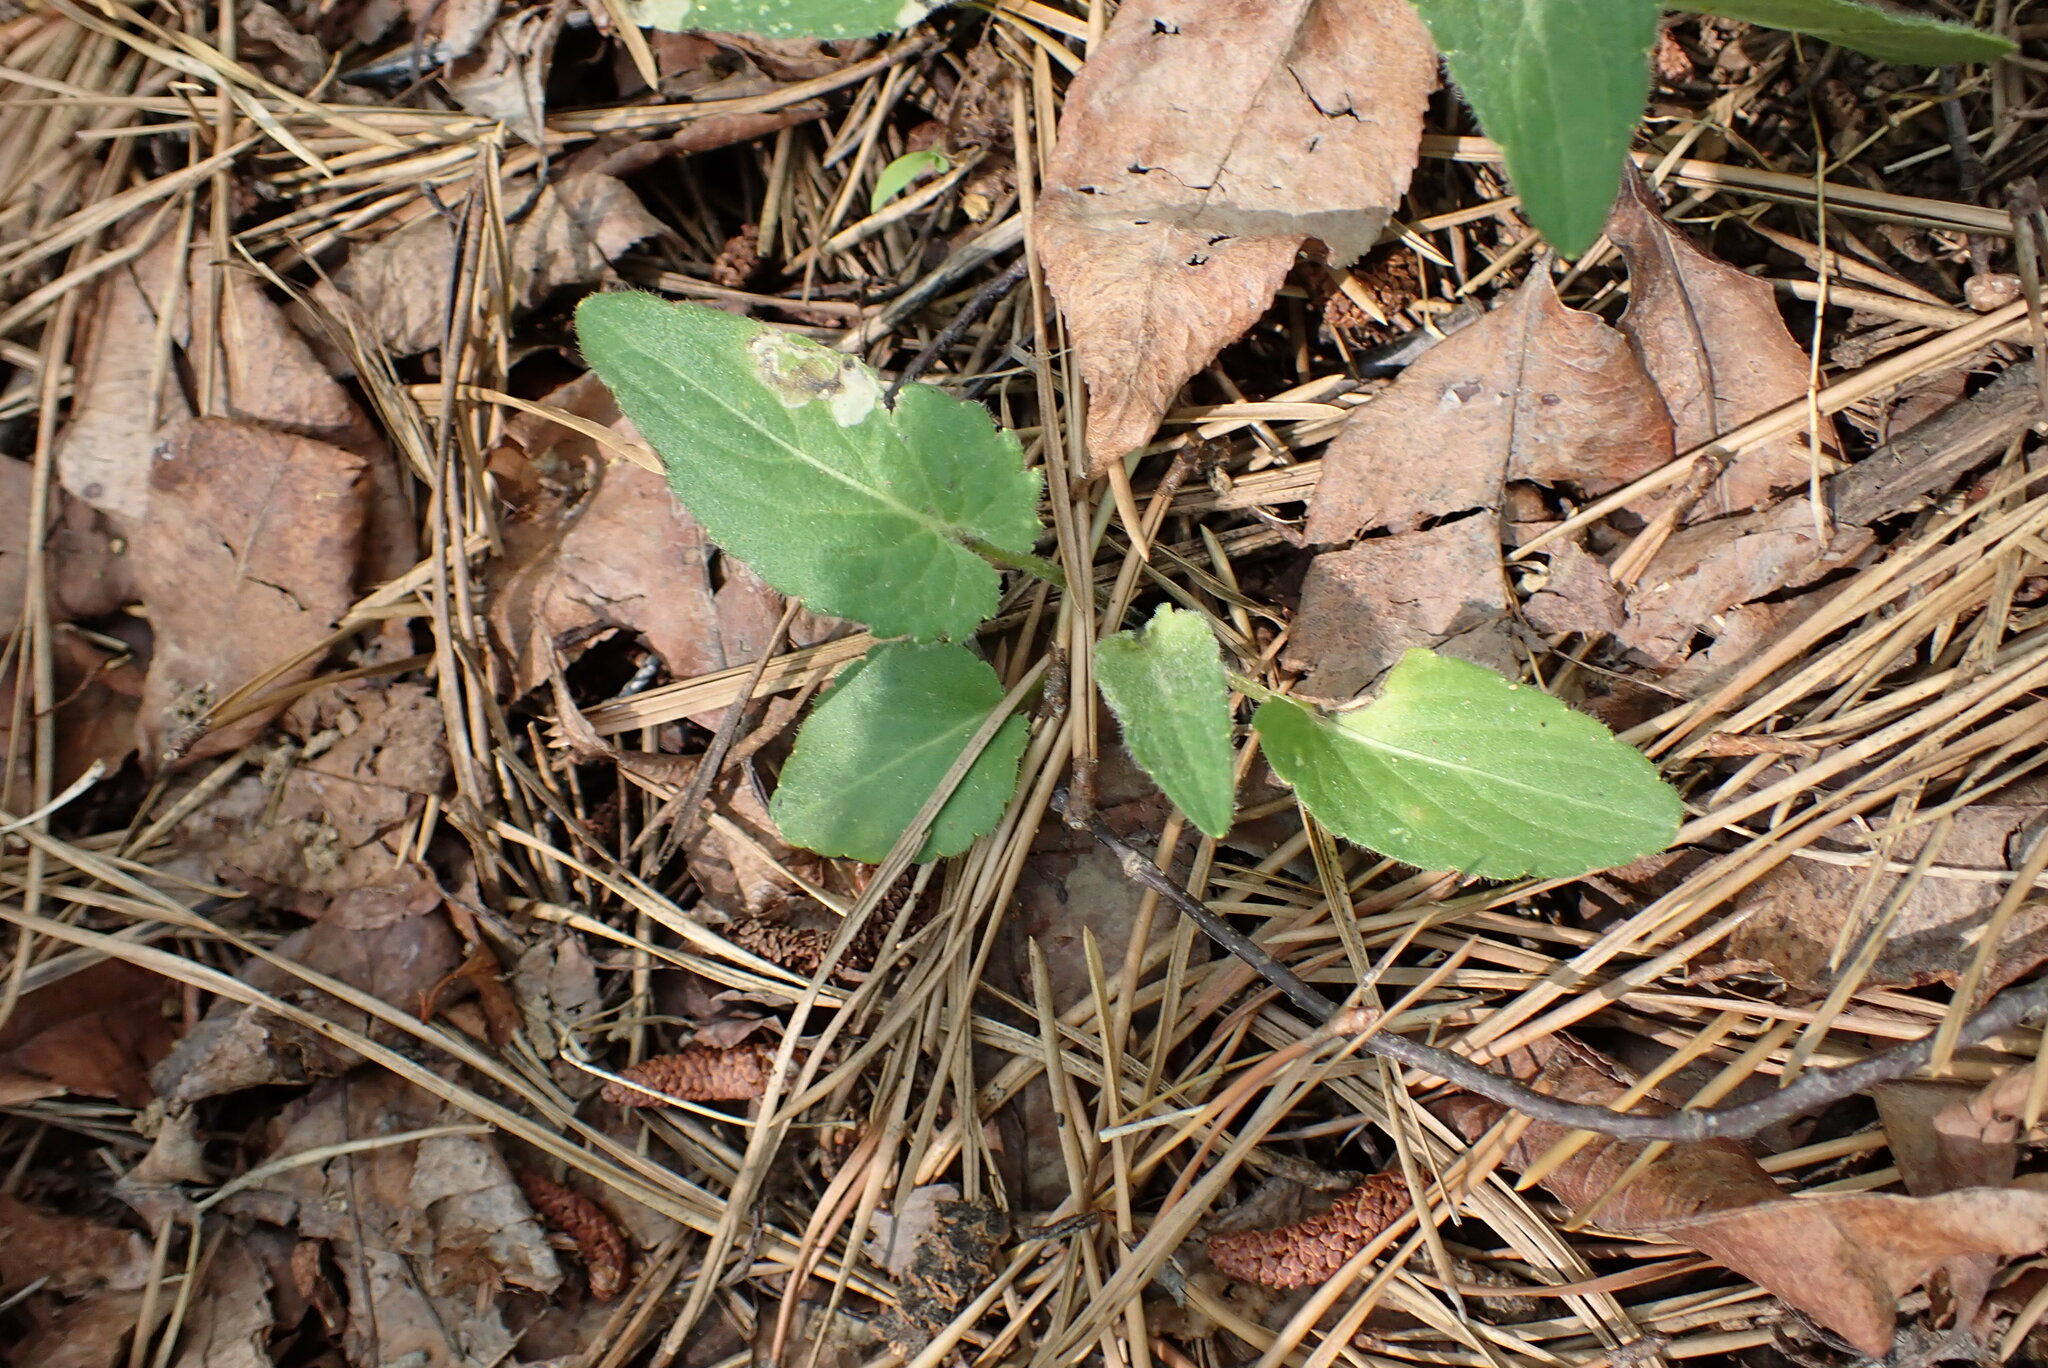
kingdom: Plantae
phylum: Tracheophyta
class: Magnoliopsida
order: Malpighiales
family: Violaceae
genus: Viola
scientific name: Viola sagittata
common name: Arrowhead violet
